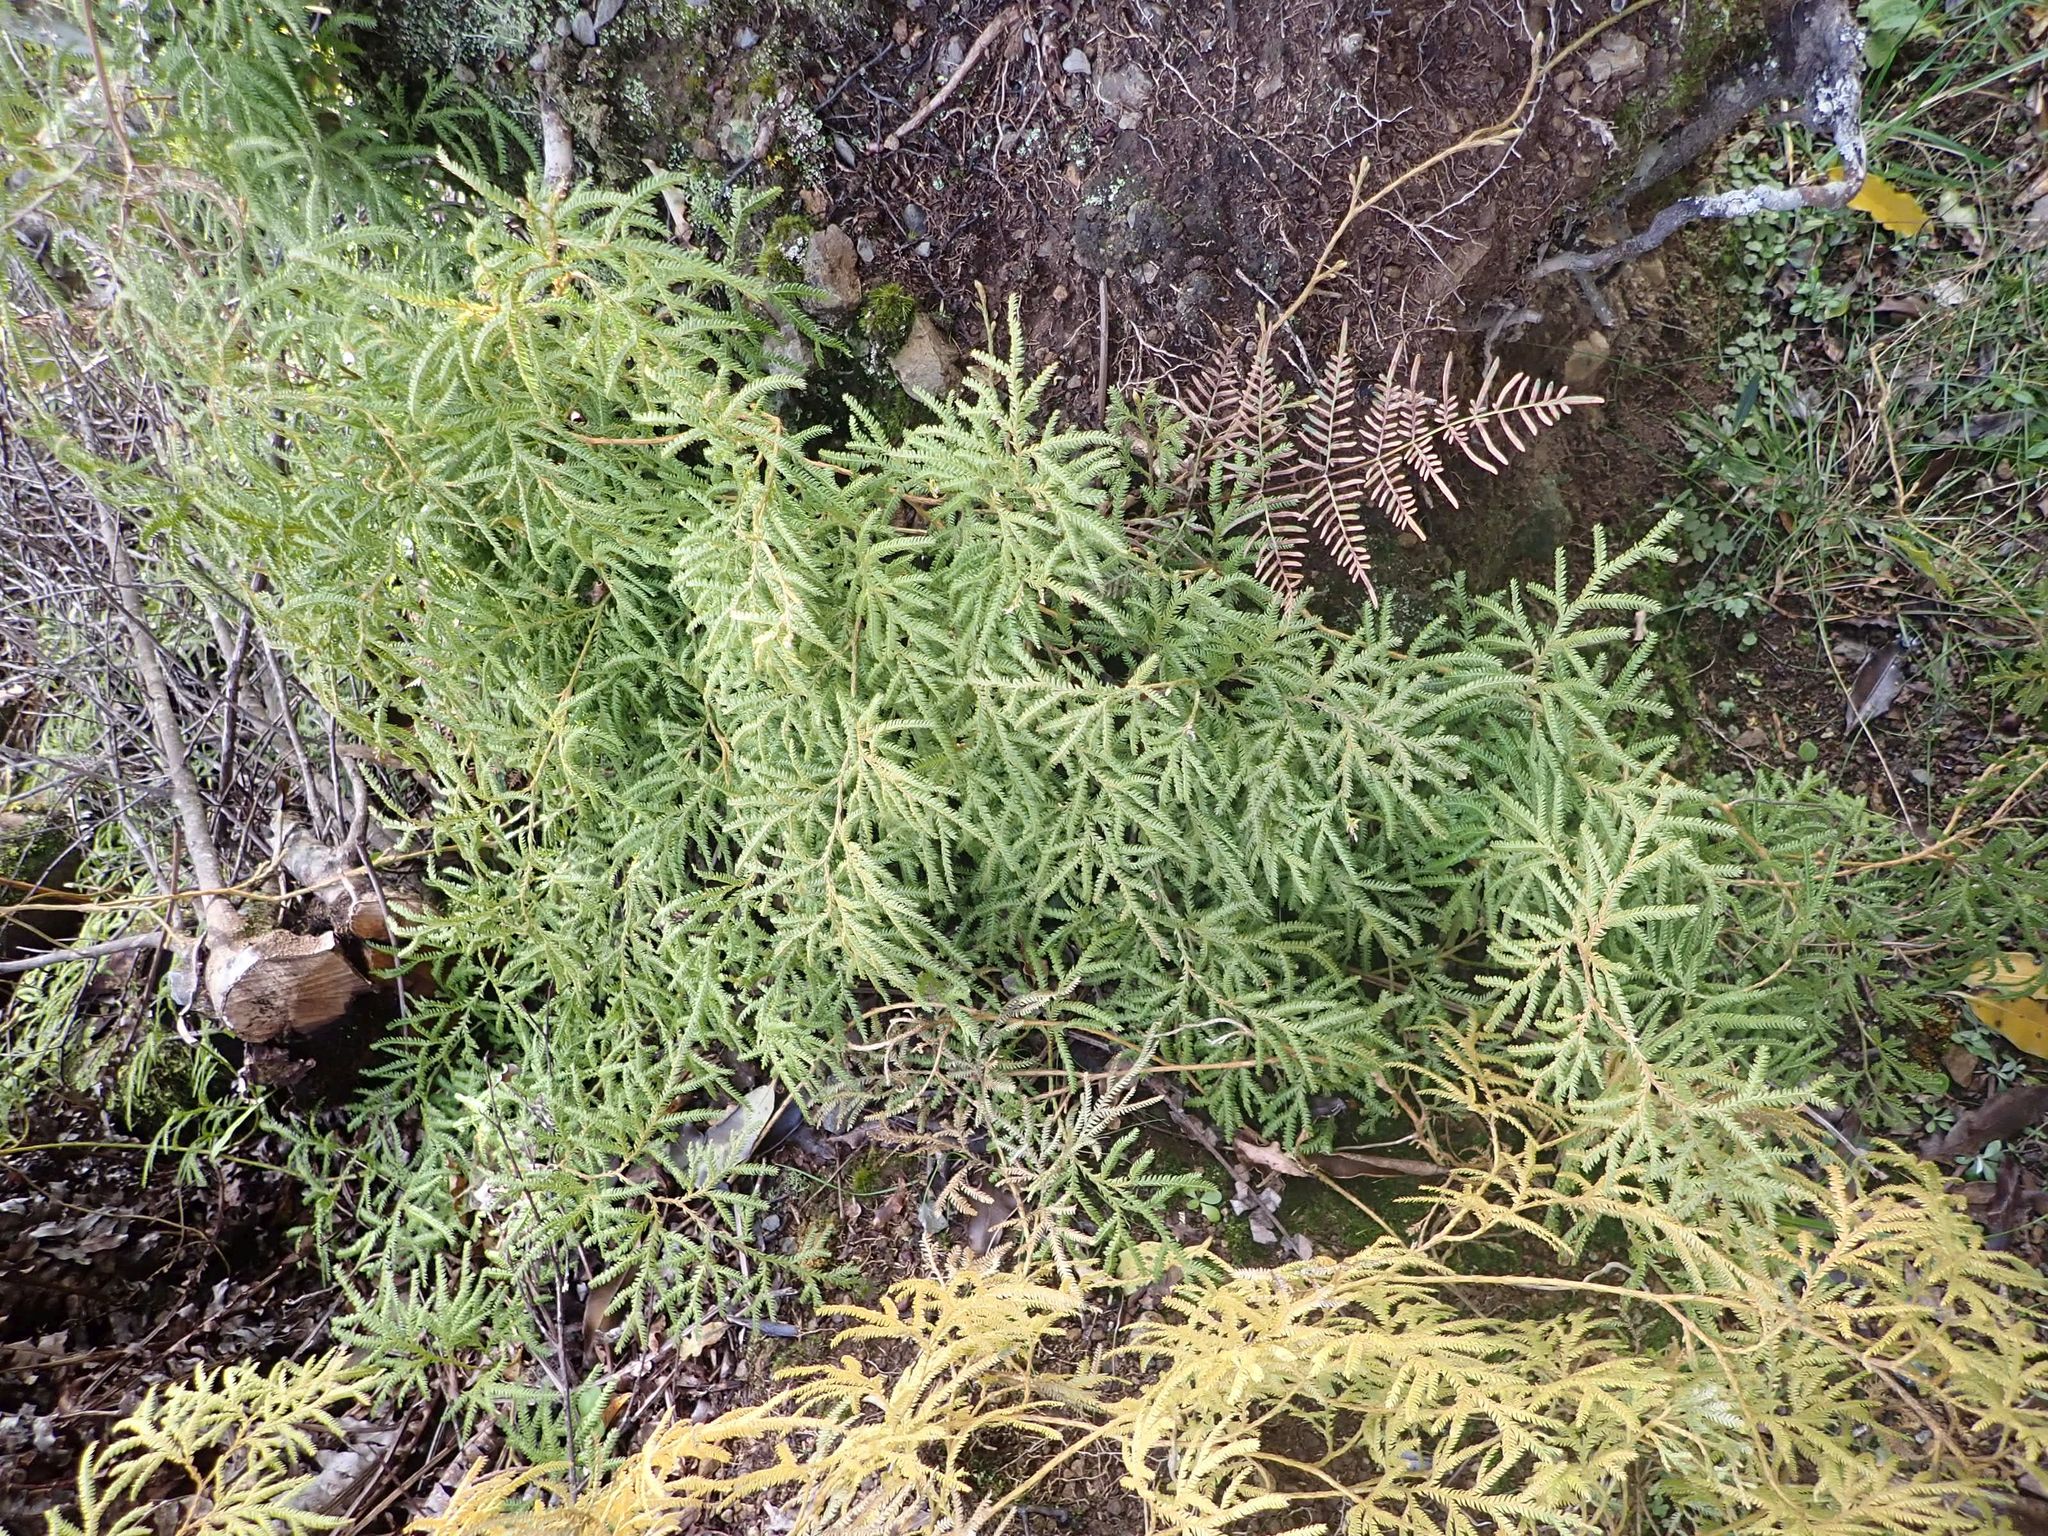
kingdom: Plantae
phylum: Tracheophyta
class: Lycopodiopsida
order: Lycopodiales
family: Lycopodiaceae
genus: Lycopodium
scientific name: Lycopodium volubile
